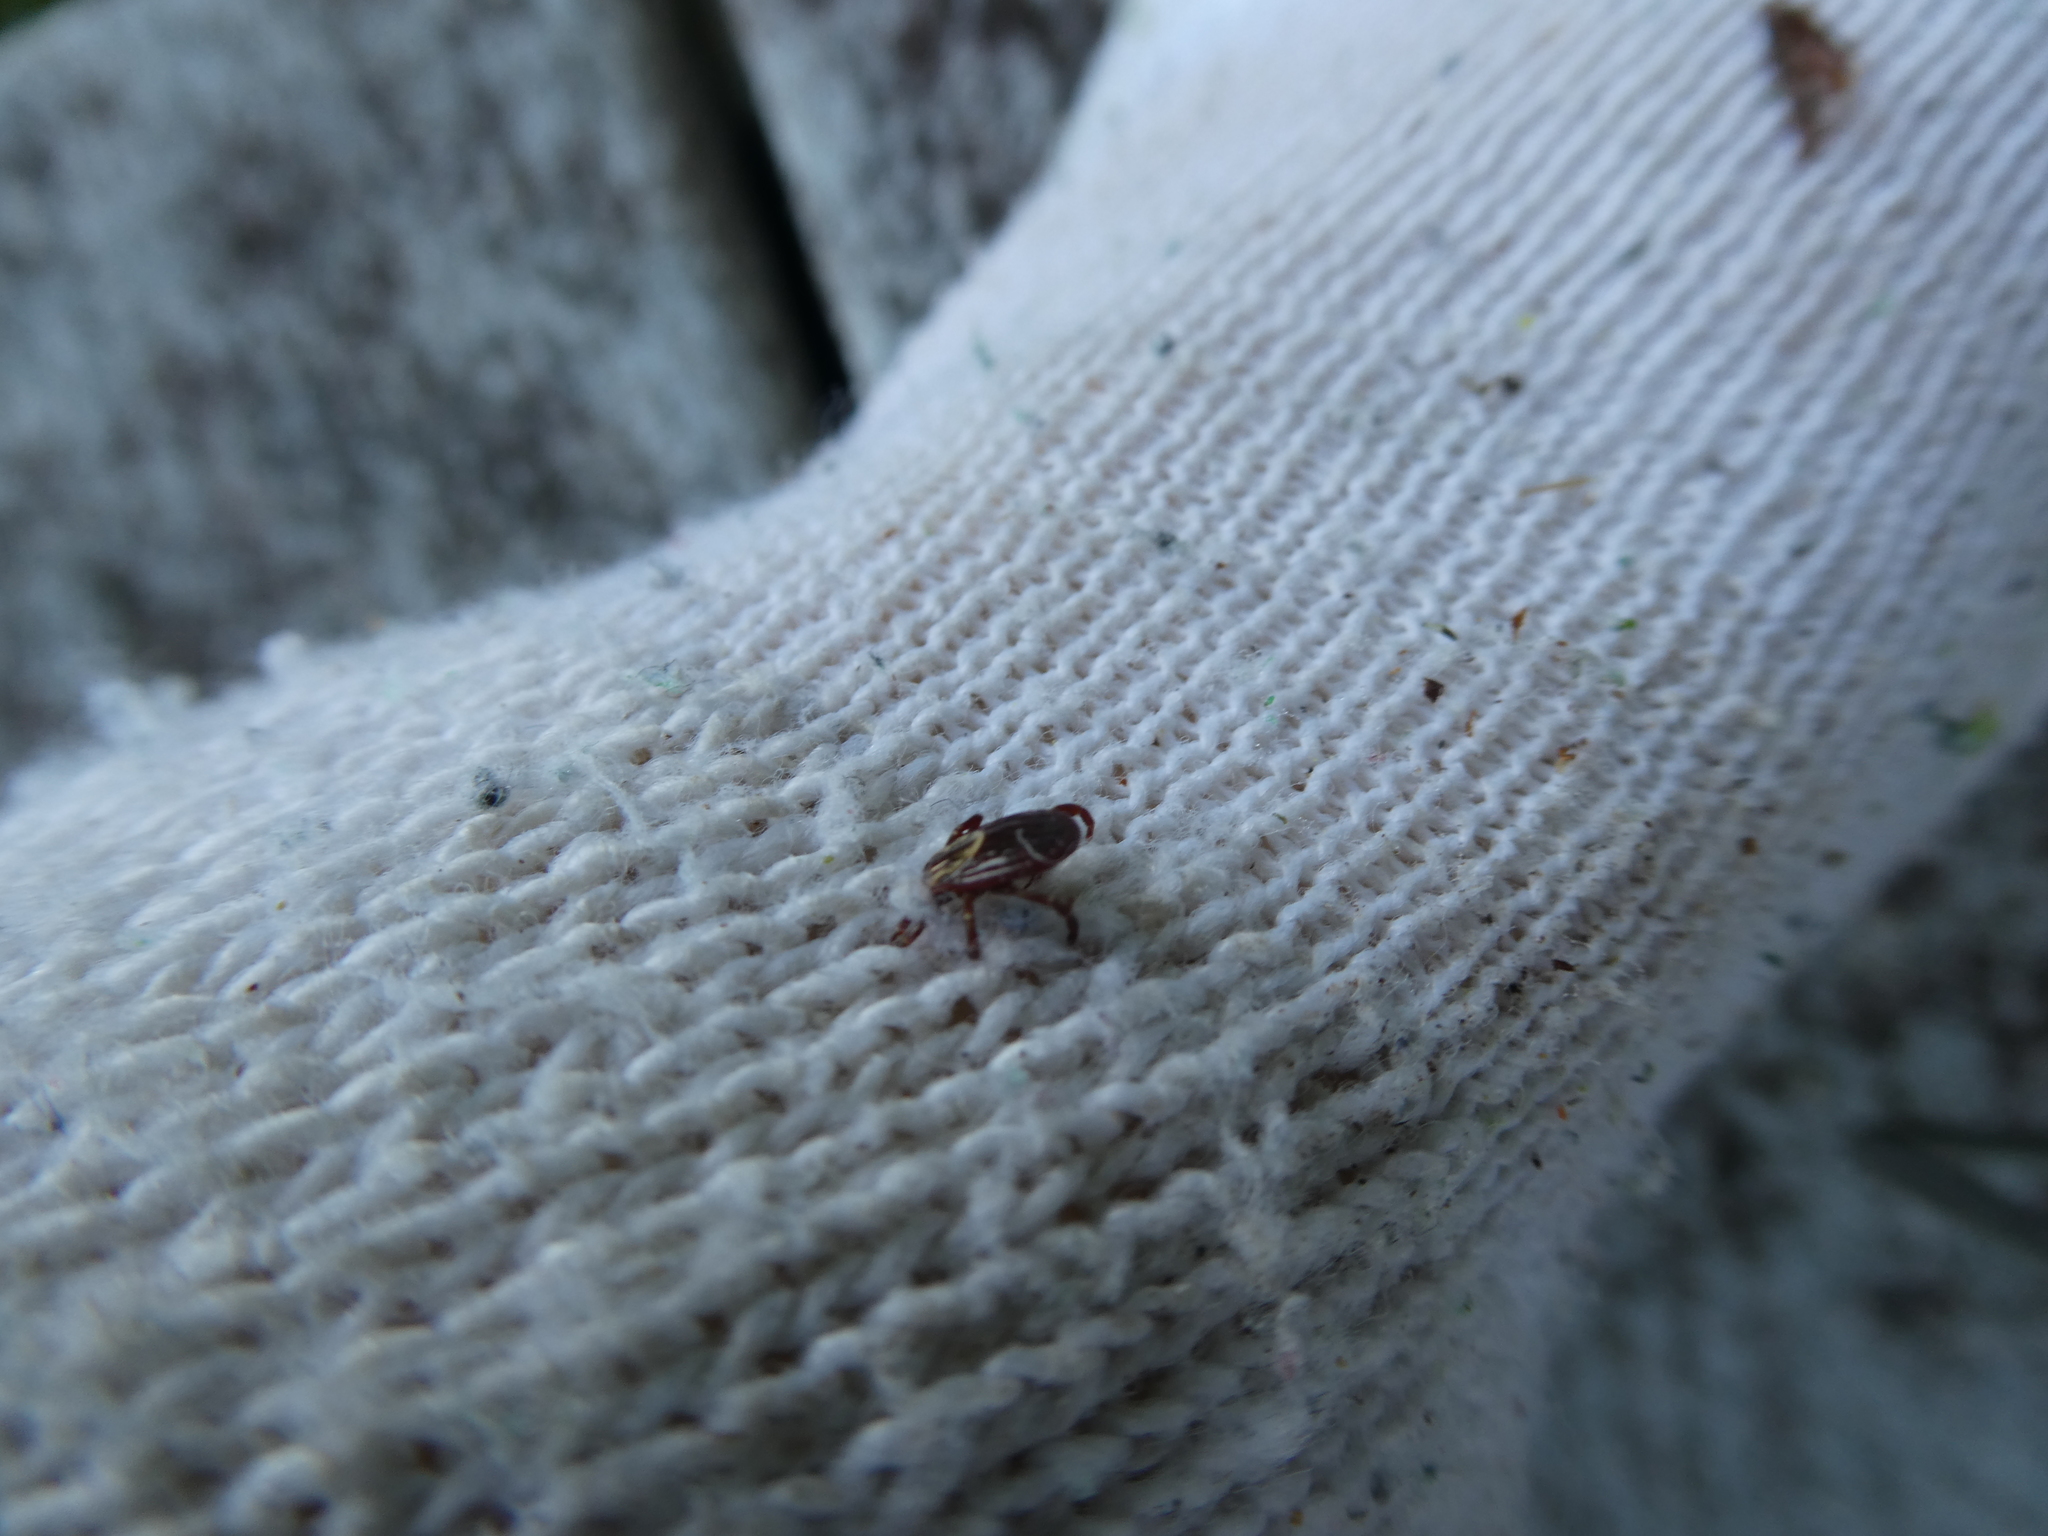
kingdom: Animalia
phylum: Arthropoda
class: Arachnida
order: Ixodida
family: Ixodidae
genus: Dermacentor
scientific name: Dermacentor variabilis
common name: American dog tick
